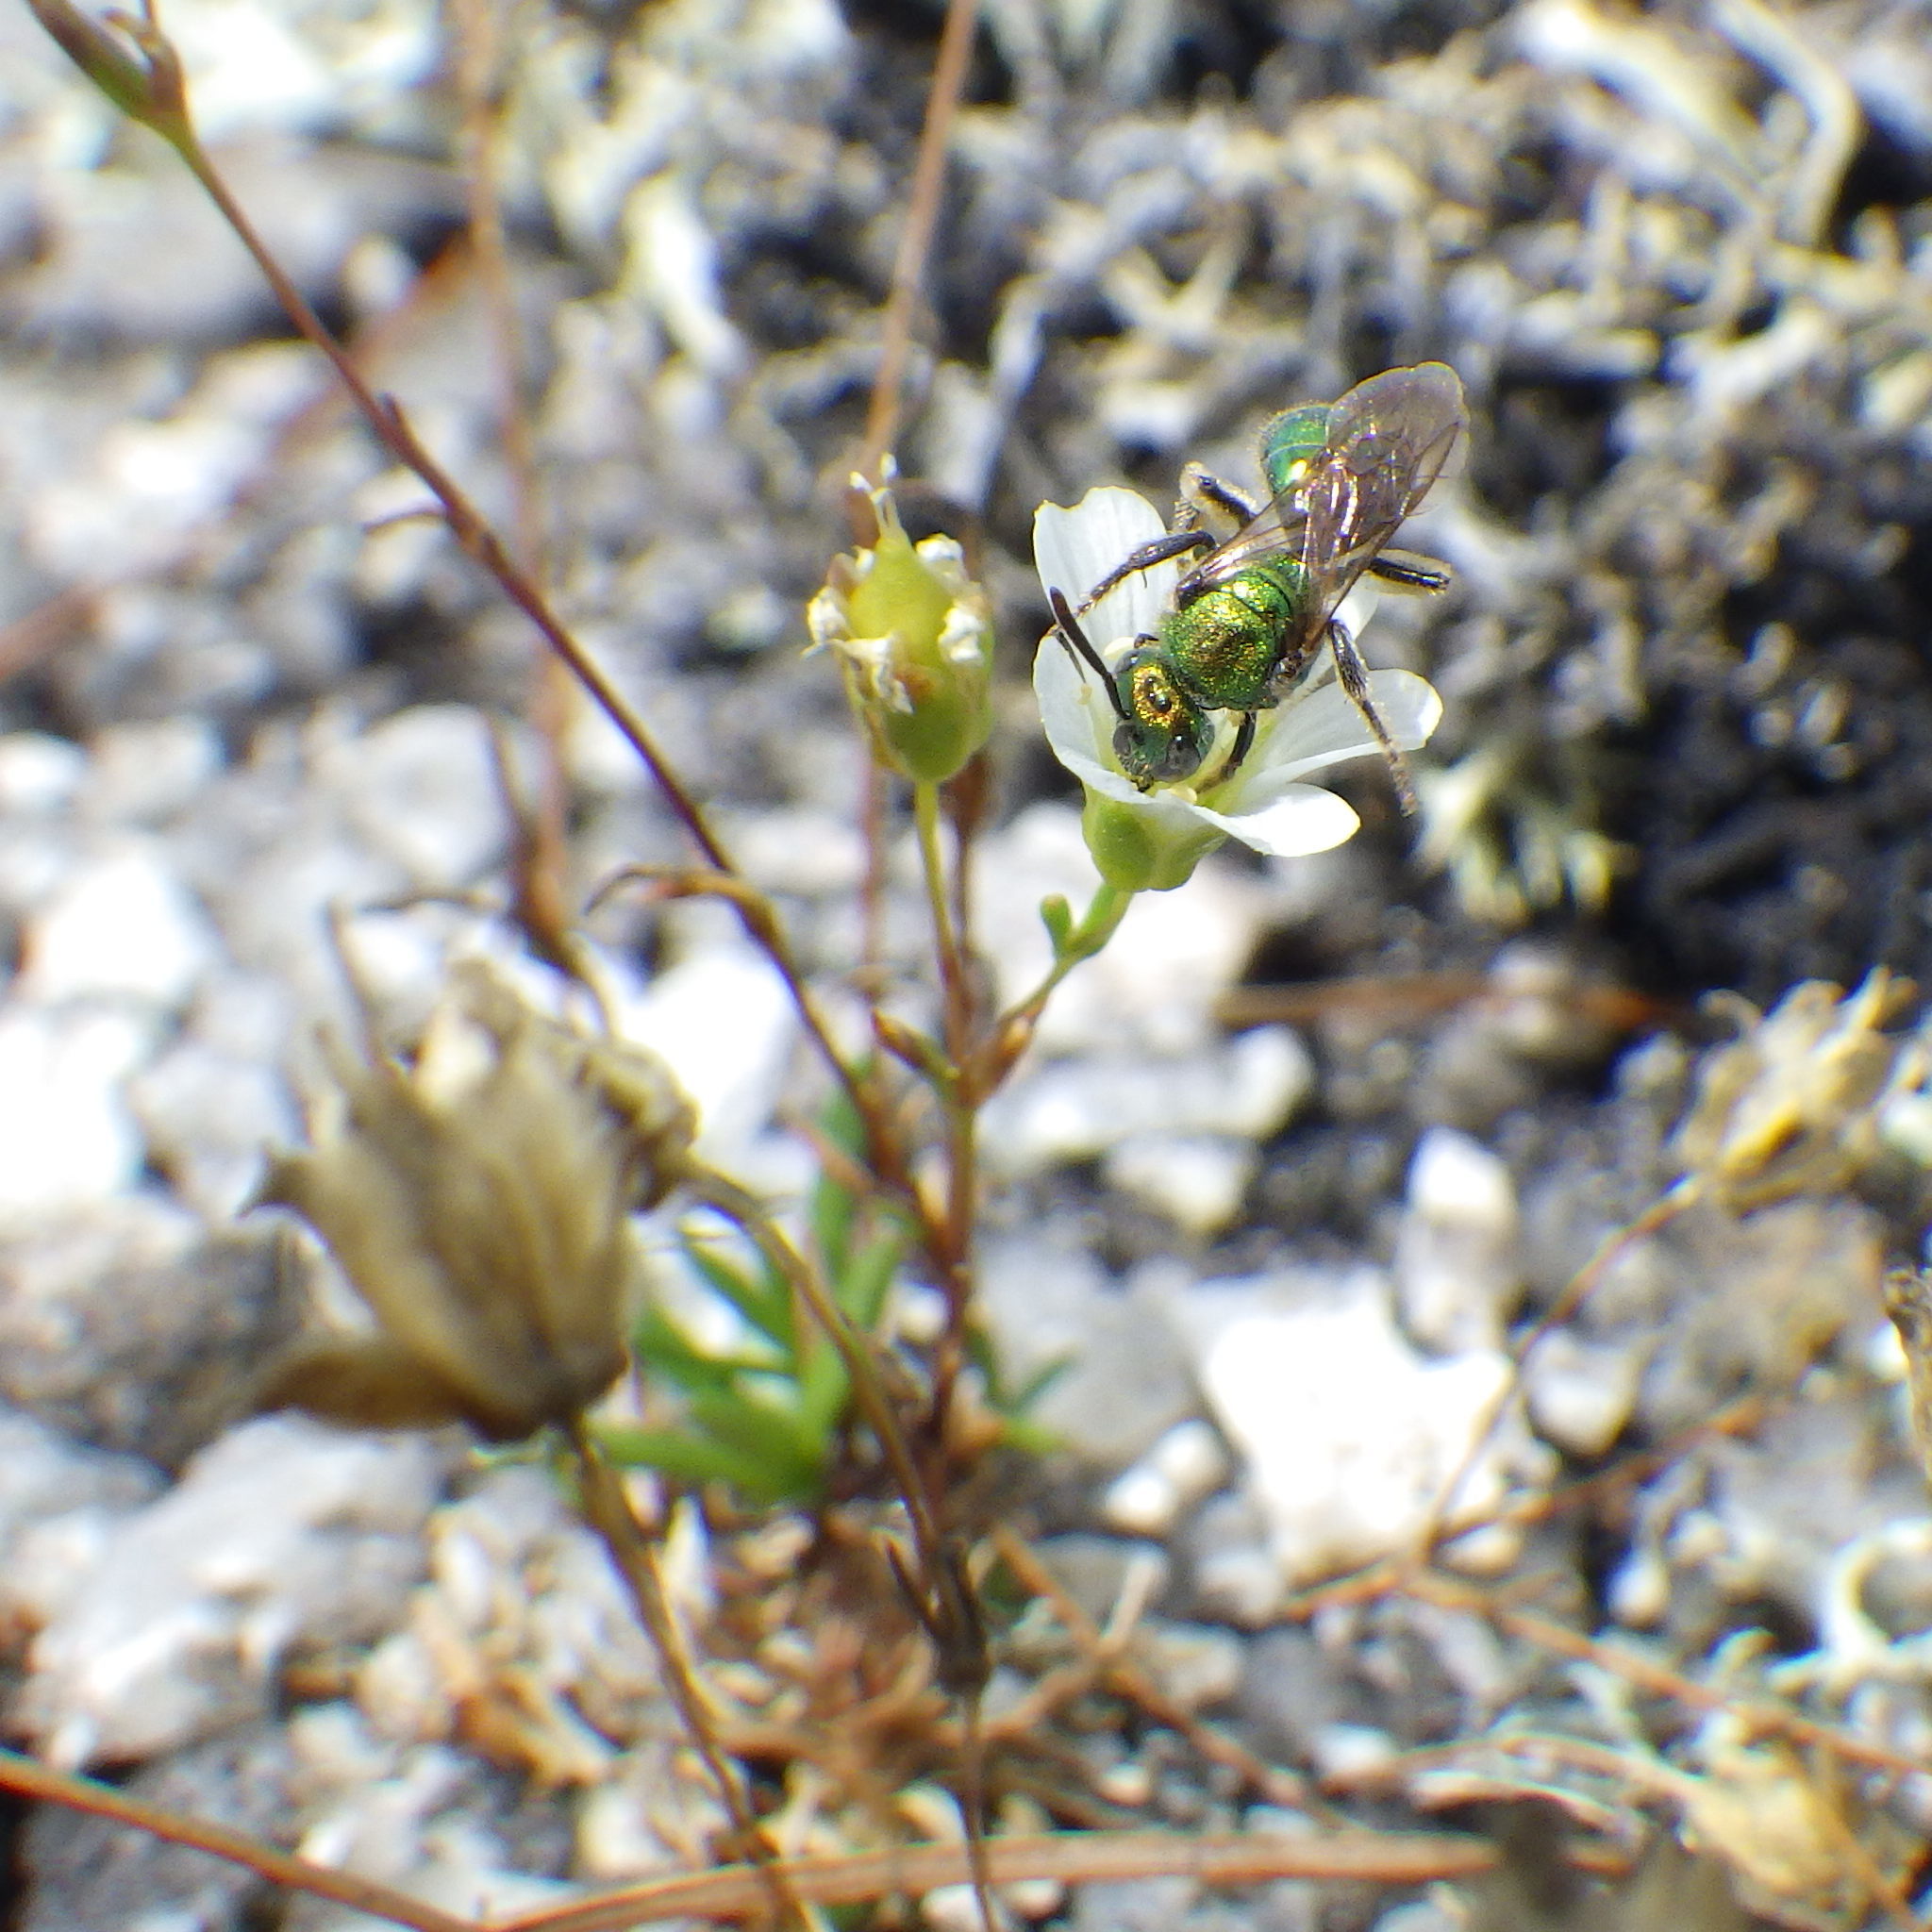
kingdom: Animalia
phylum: Arthropoda
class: Insecta
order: Hymenoptera
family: Halictidae
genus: Augochlorella
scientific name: Augochlorella aurata
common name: Golden sweat bee
